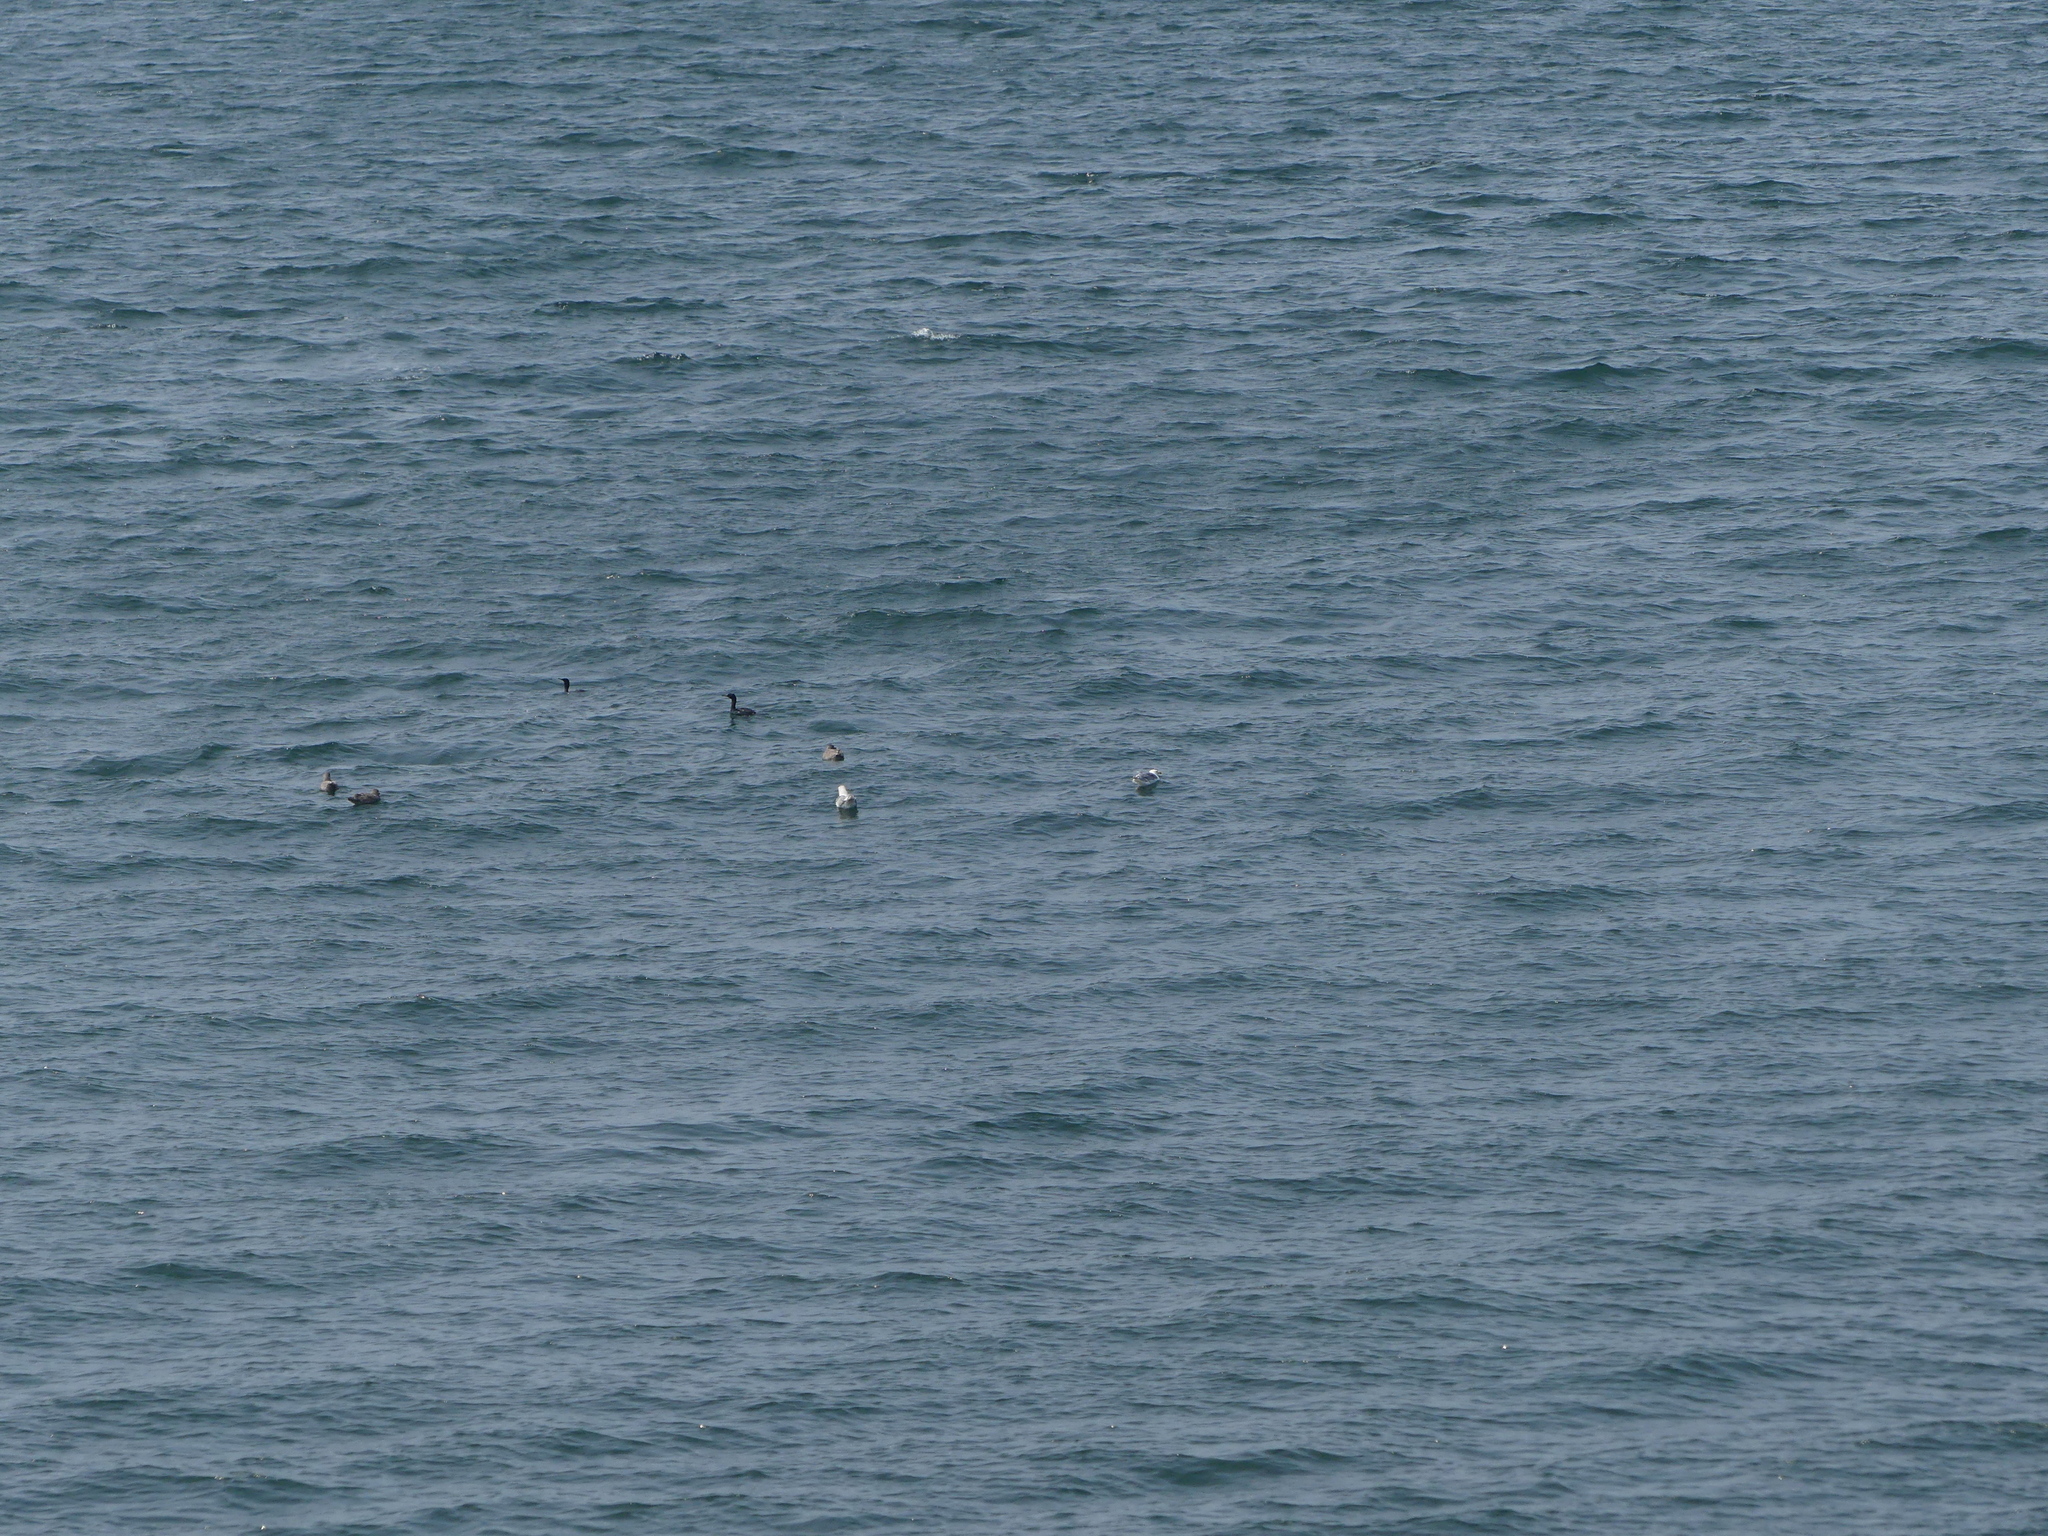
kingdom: Animalia
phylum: Chordata
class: Aves
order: Suliformes
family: Phalacrocoracidae
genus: Phalacrocorax
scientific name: Phalacrocorax pelagicus
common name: Pelagic cormorant
